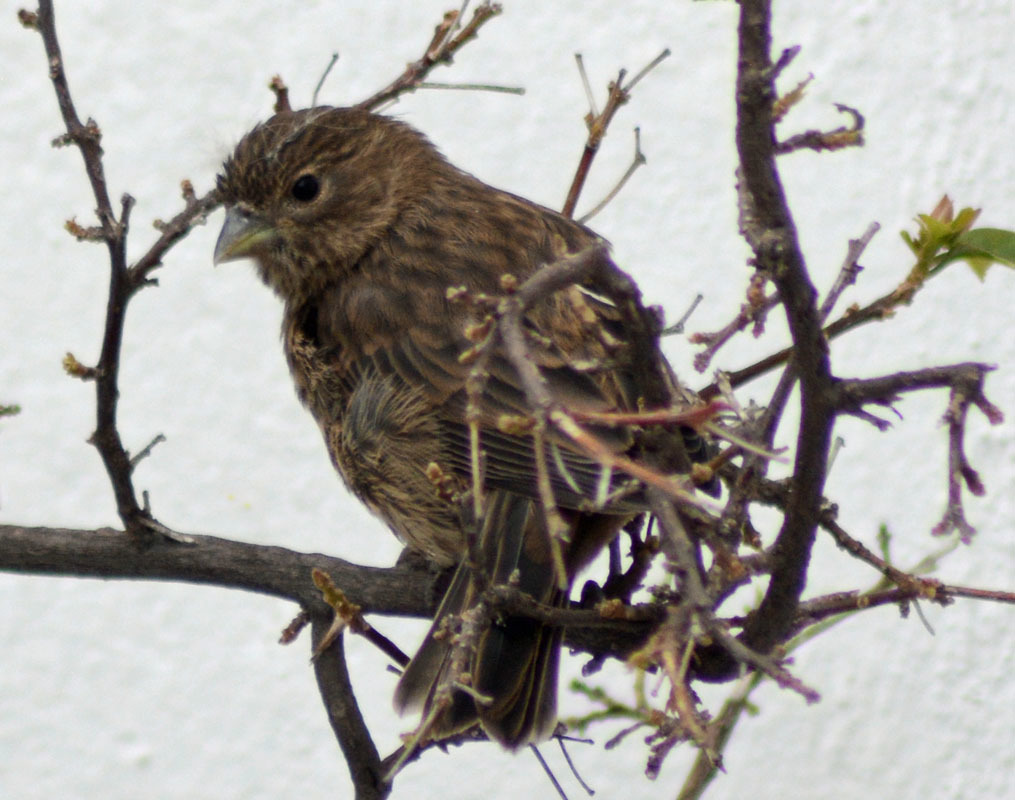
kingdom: Animalia
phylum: Chordata
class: Aves
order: Passeriformes
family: Passeridae
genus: Passer
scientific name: Passer domesticus
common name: House sparrow
